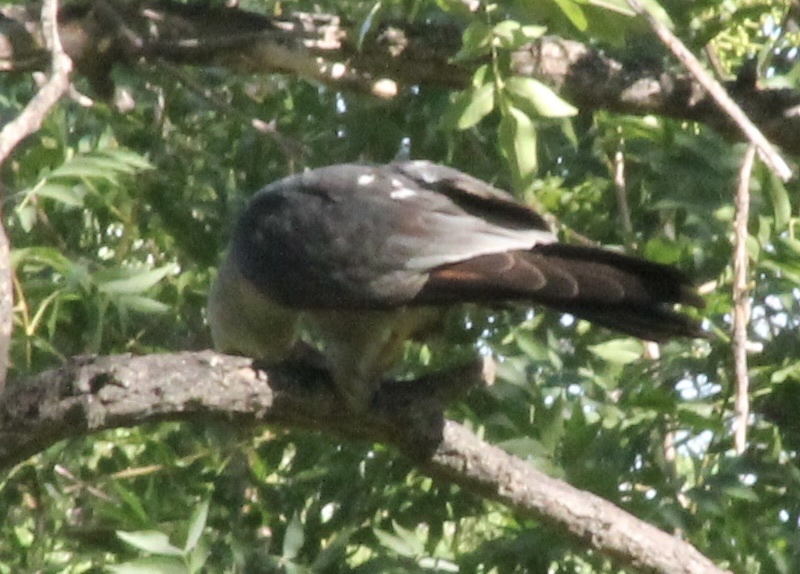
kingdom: Animalia
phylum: Chordata
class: Aves
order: Accipitriformes
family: Accipitridae
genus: Ictinia
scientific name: Ictinia mississippiensis
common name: Mississippi kite
